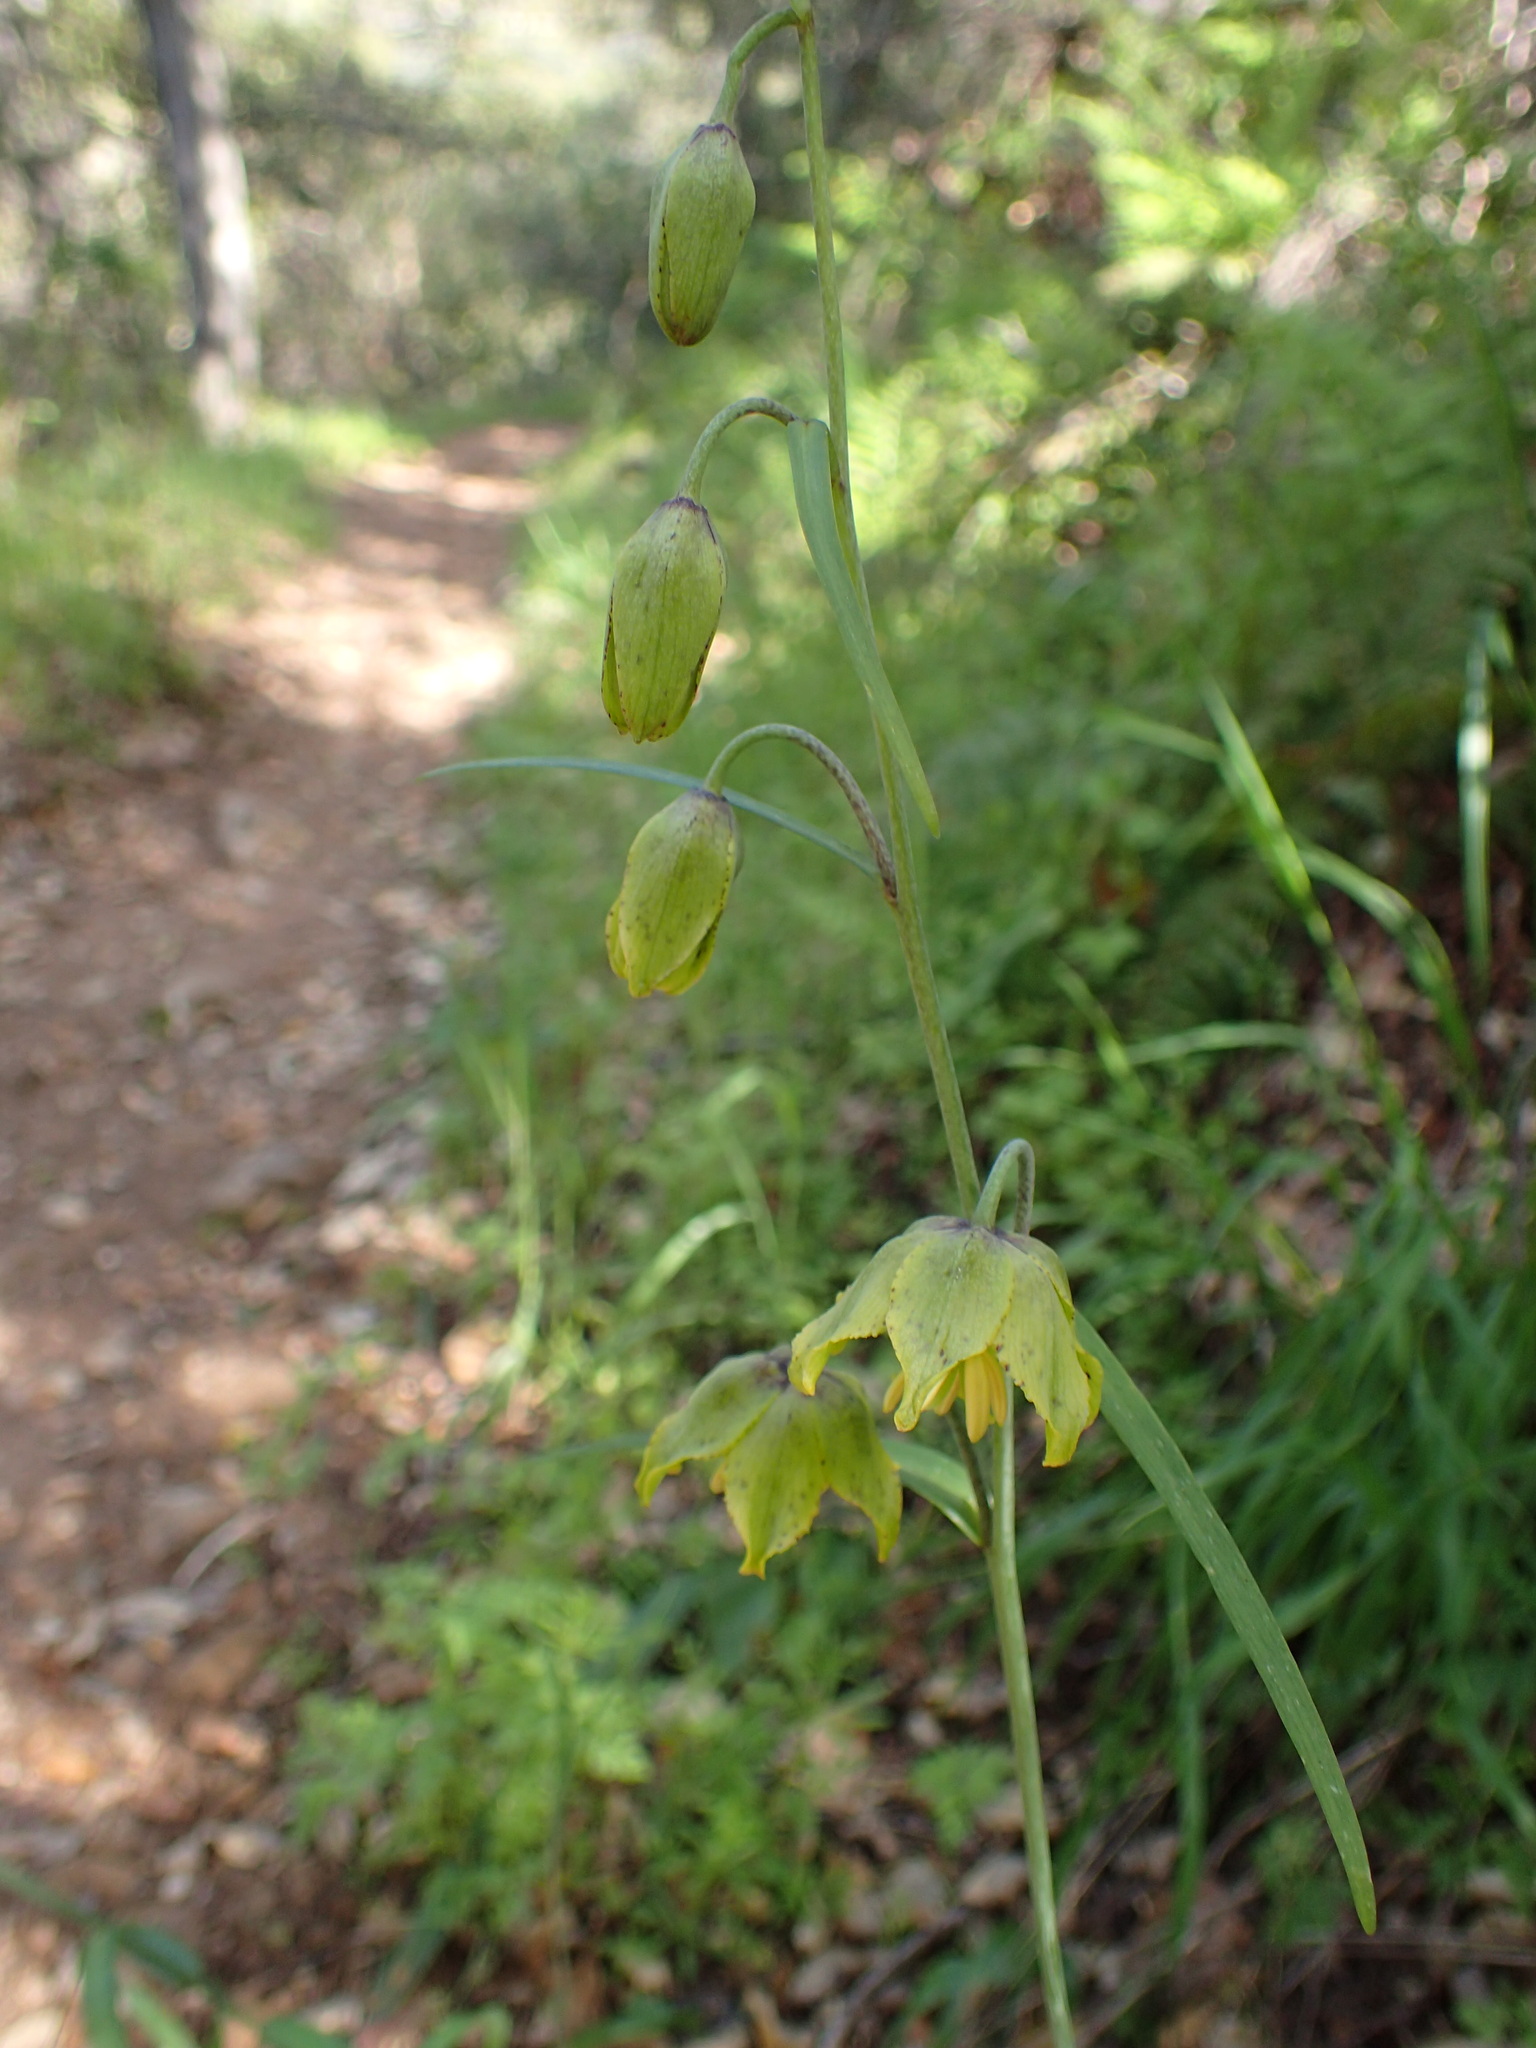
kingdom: Plantae
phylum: Tracheophyta
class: Liliopsida
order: Liliales
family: Liliaceae
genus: Fritillaria
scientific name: Fritillaria ojaiensis
